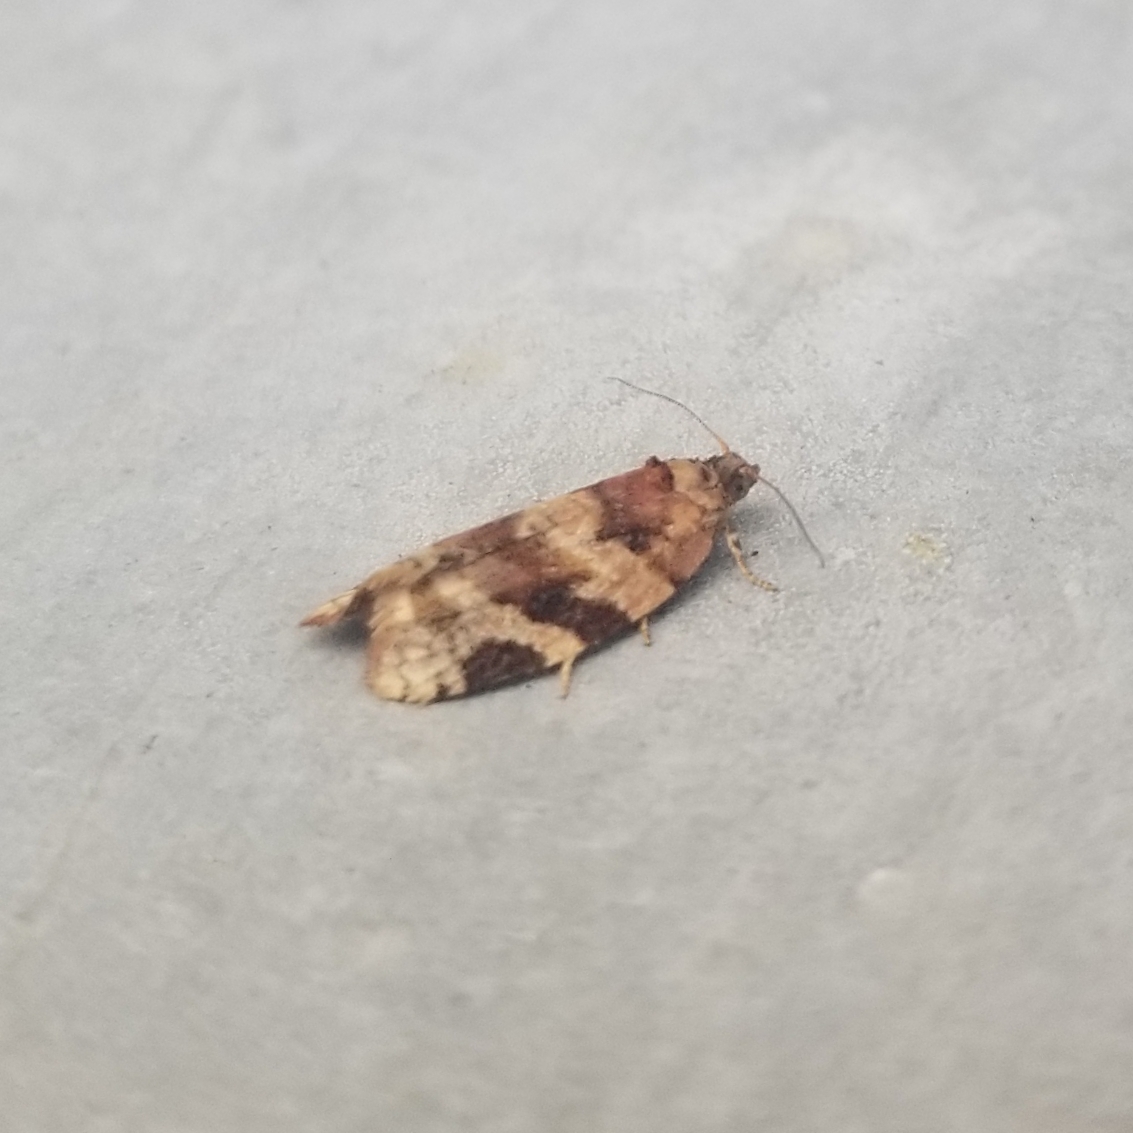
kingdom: Animalia
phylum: Arthropoda
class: Insecta
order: Lepidoptera
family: Tortricidae
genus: Argyrotaenia
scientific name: Argyrotaenia velutinana
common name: Red-banded leafroller moth
